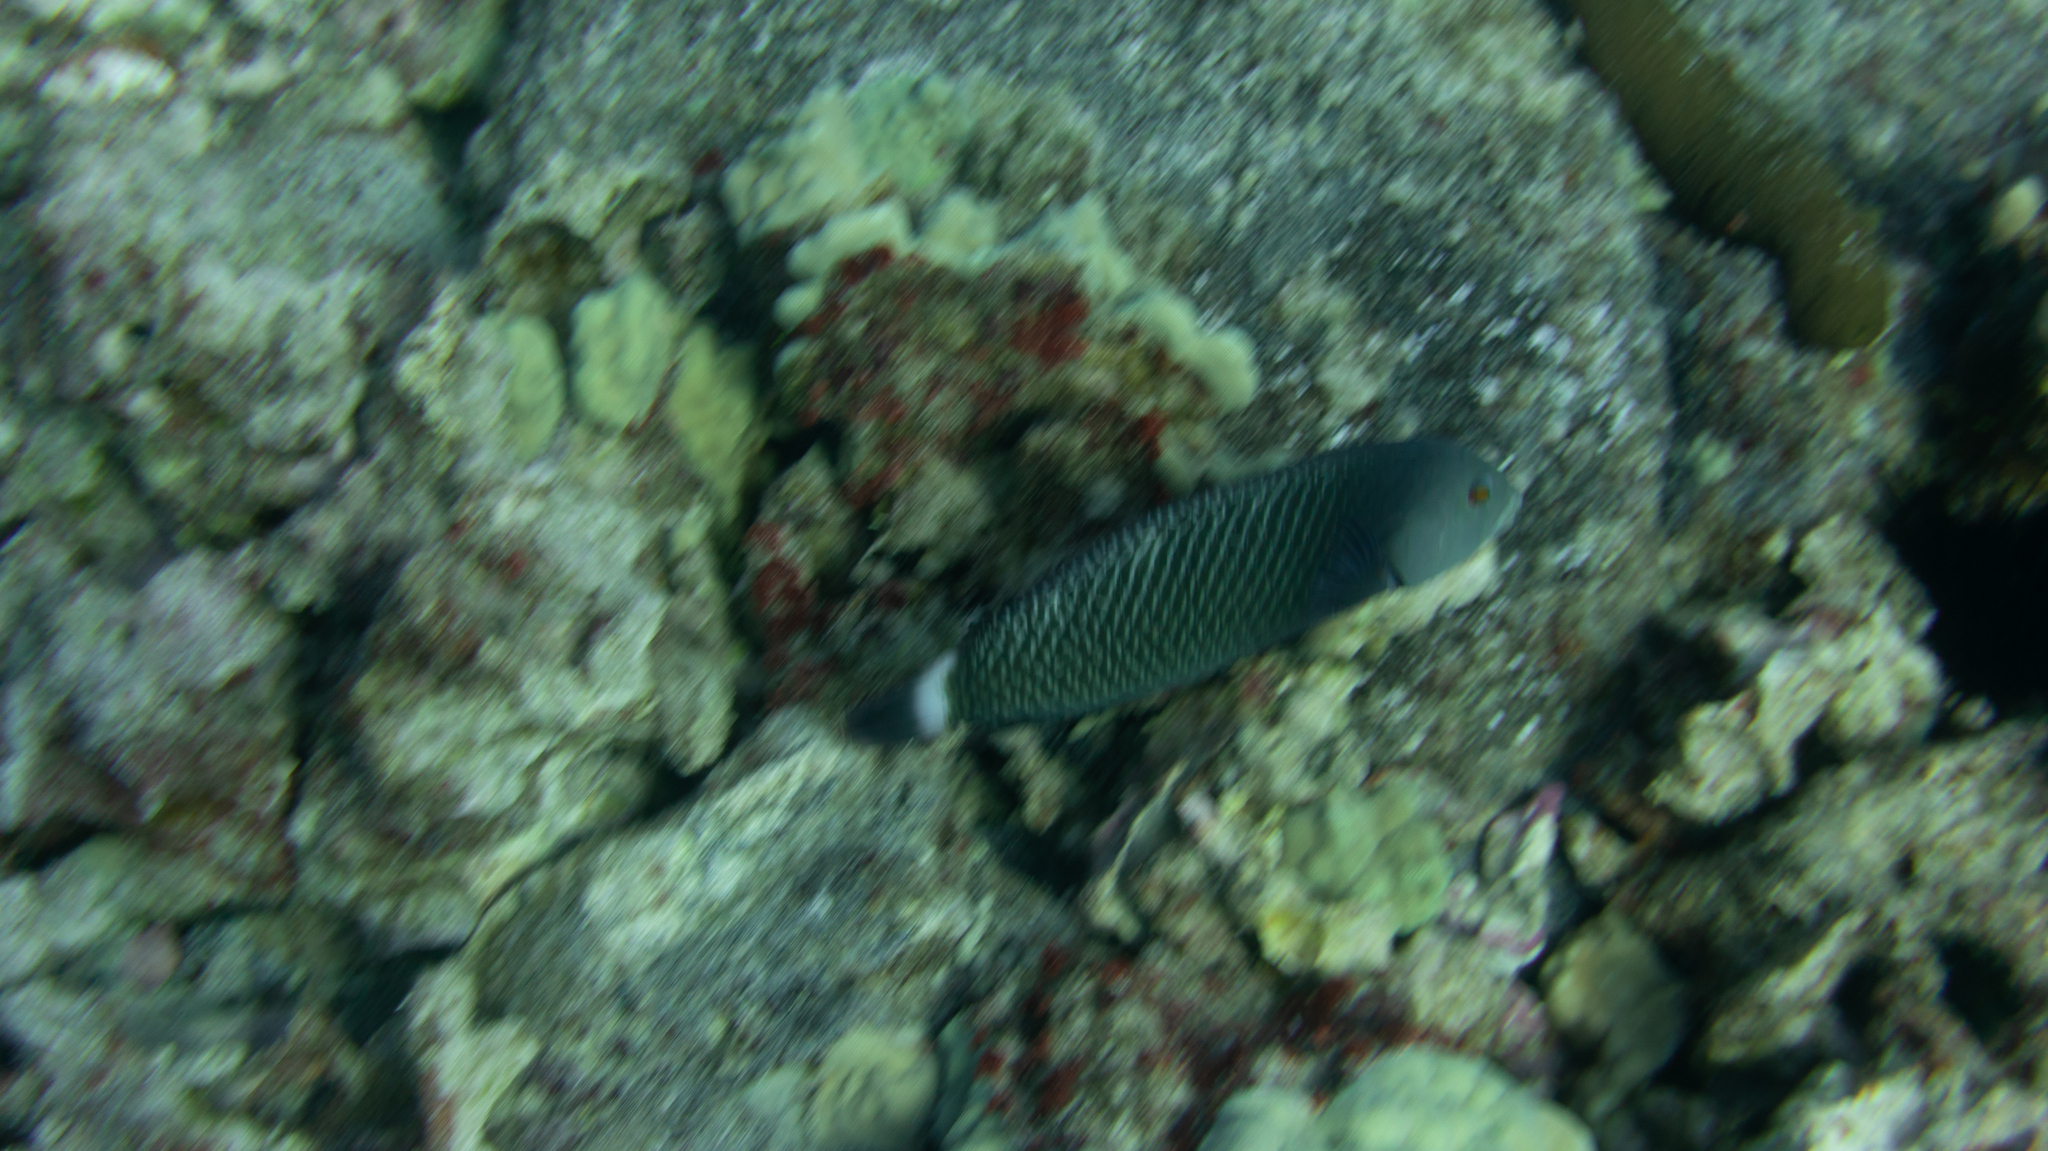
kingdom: Animalia
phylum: Chordata
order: Perciformes
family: Labridae
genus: Novaculichthys
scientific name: Novaculichthys taeniourus
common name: Rockmover wrasse
